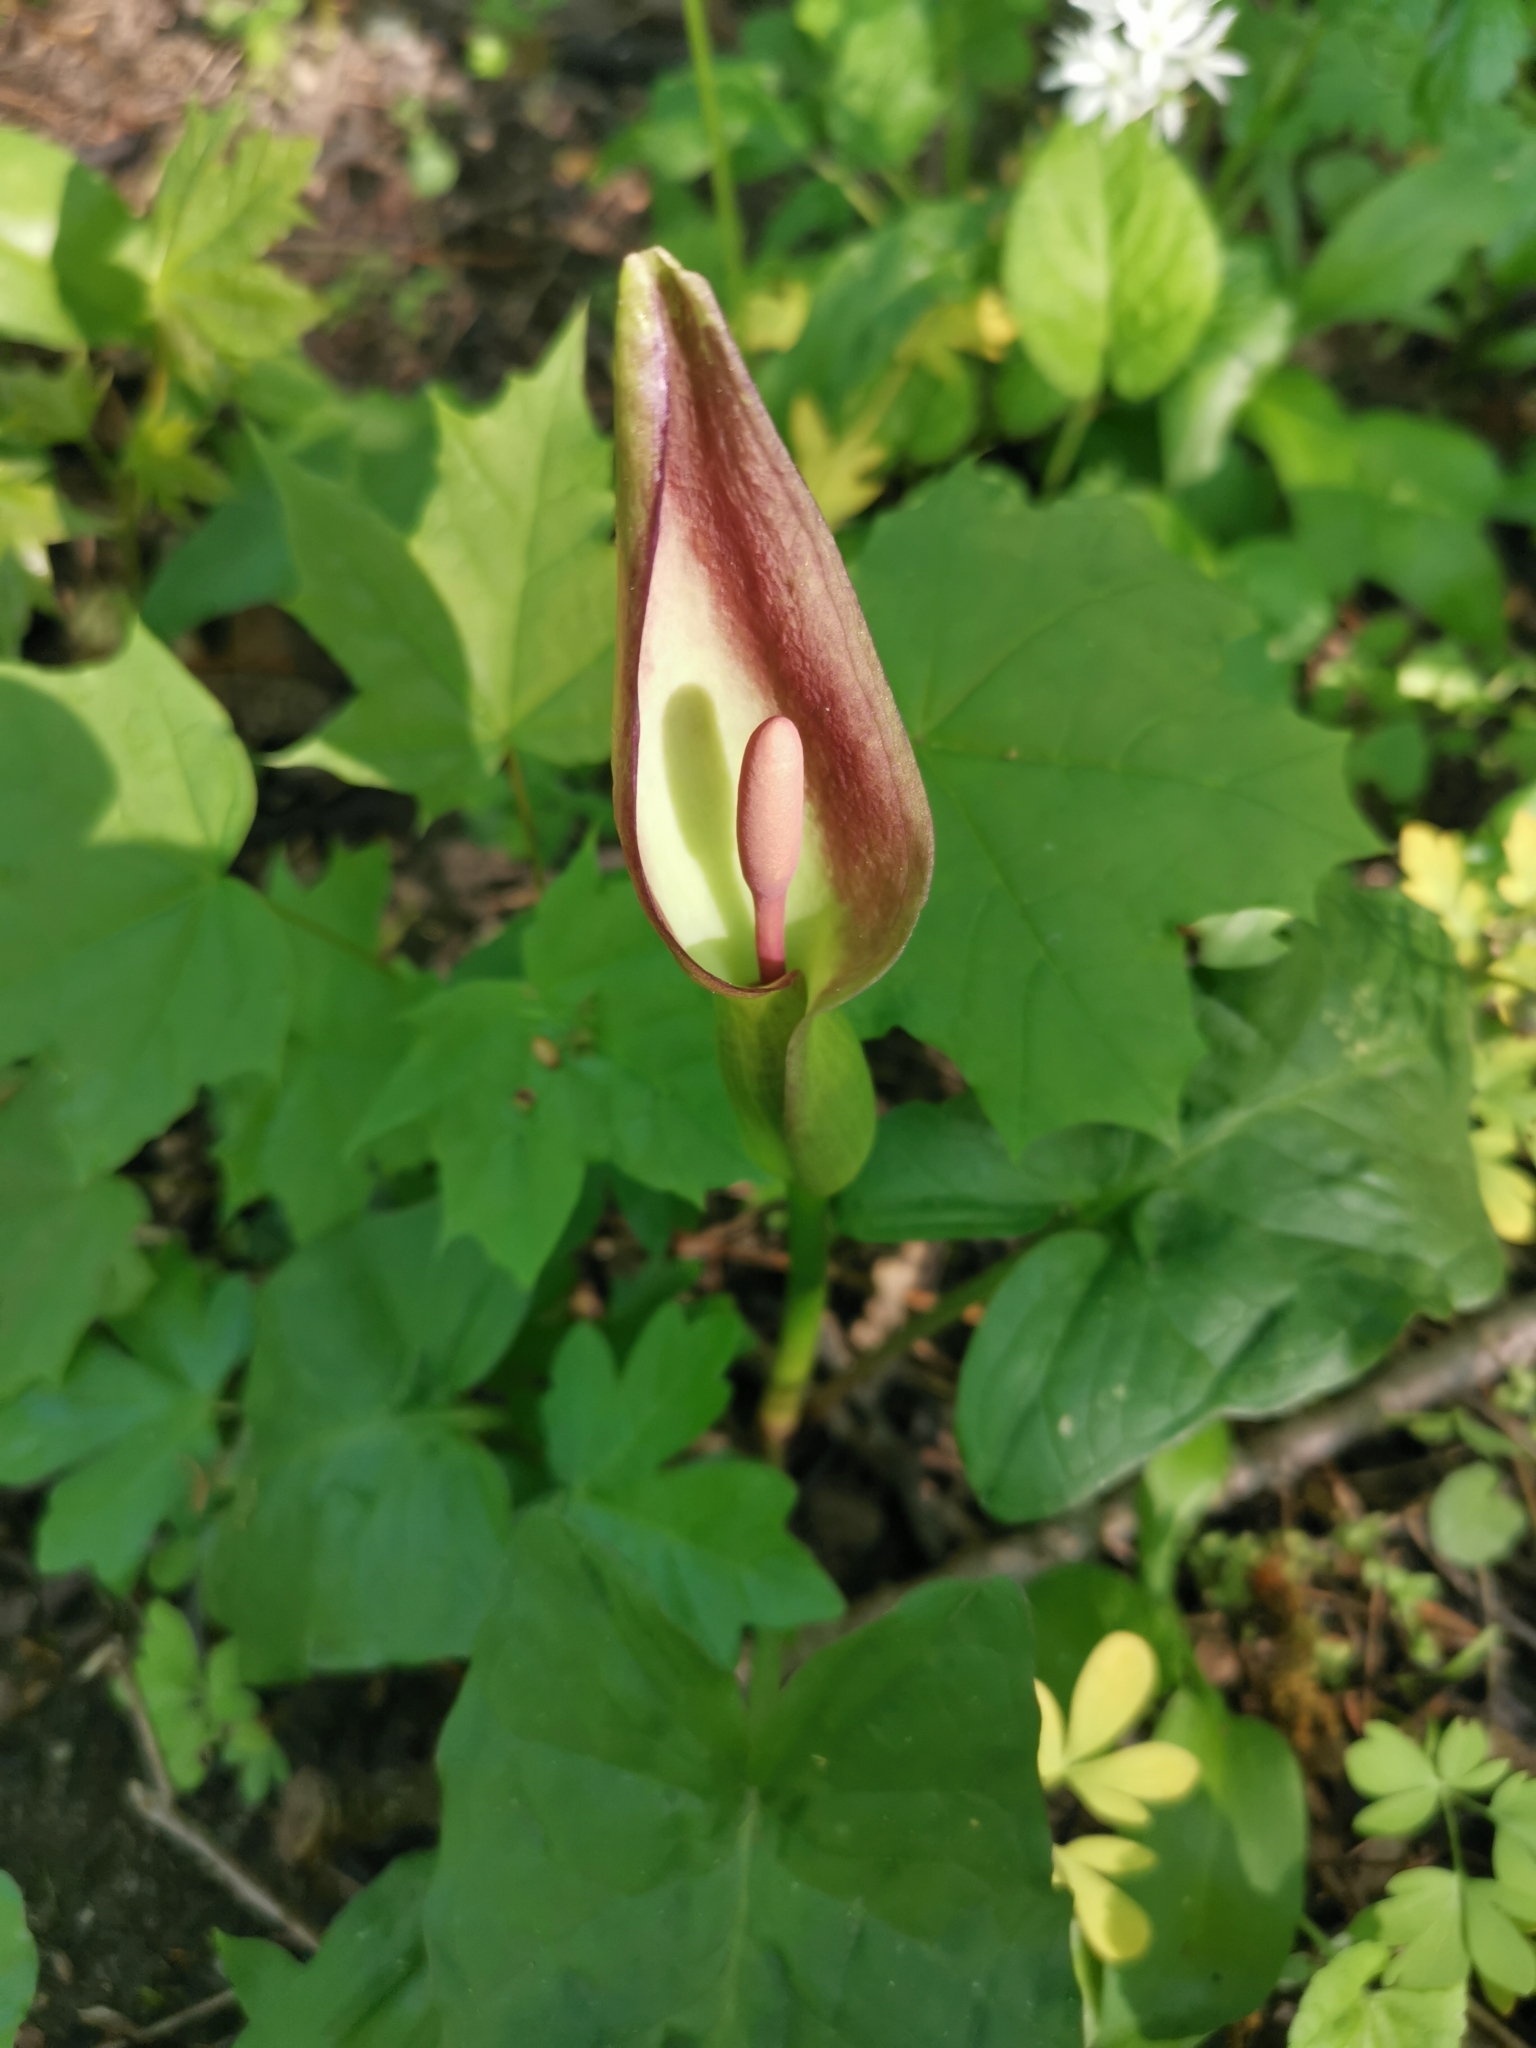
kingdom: Plantae
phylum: Tracheophyta
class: Liliopsida
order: Alismatales
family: Araceae
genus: Arum
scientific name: Arum cylindraceum
